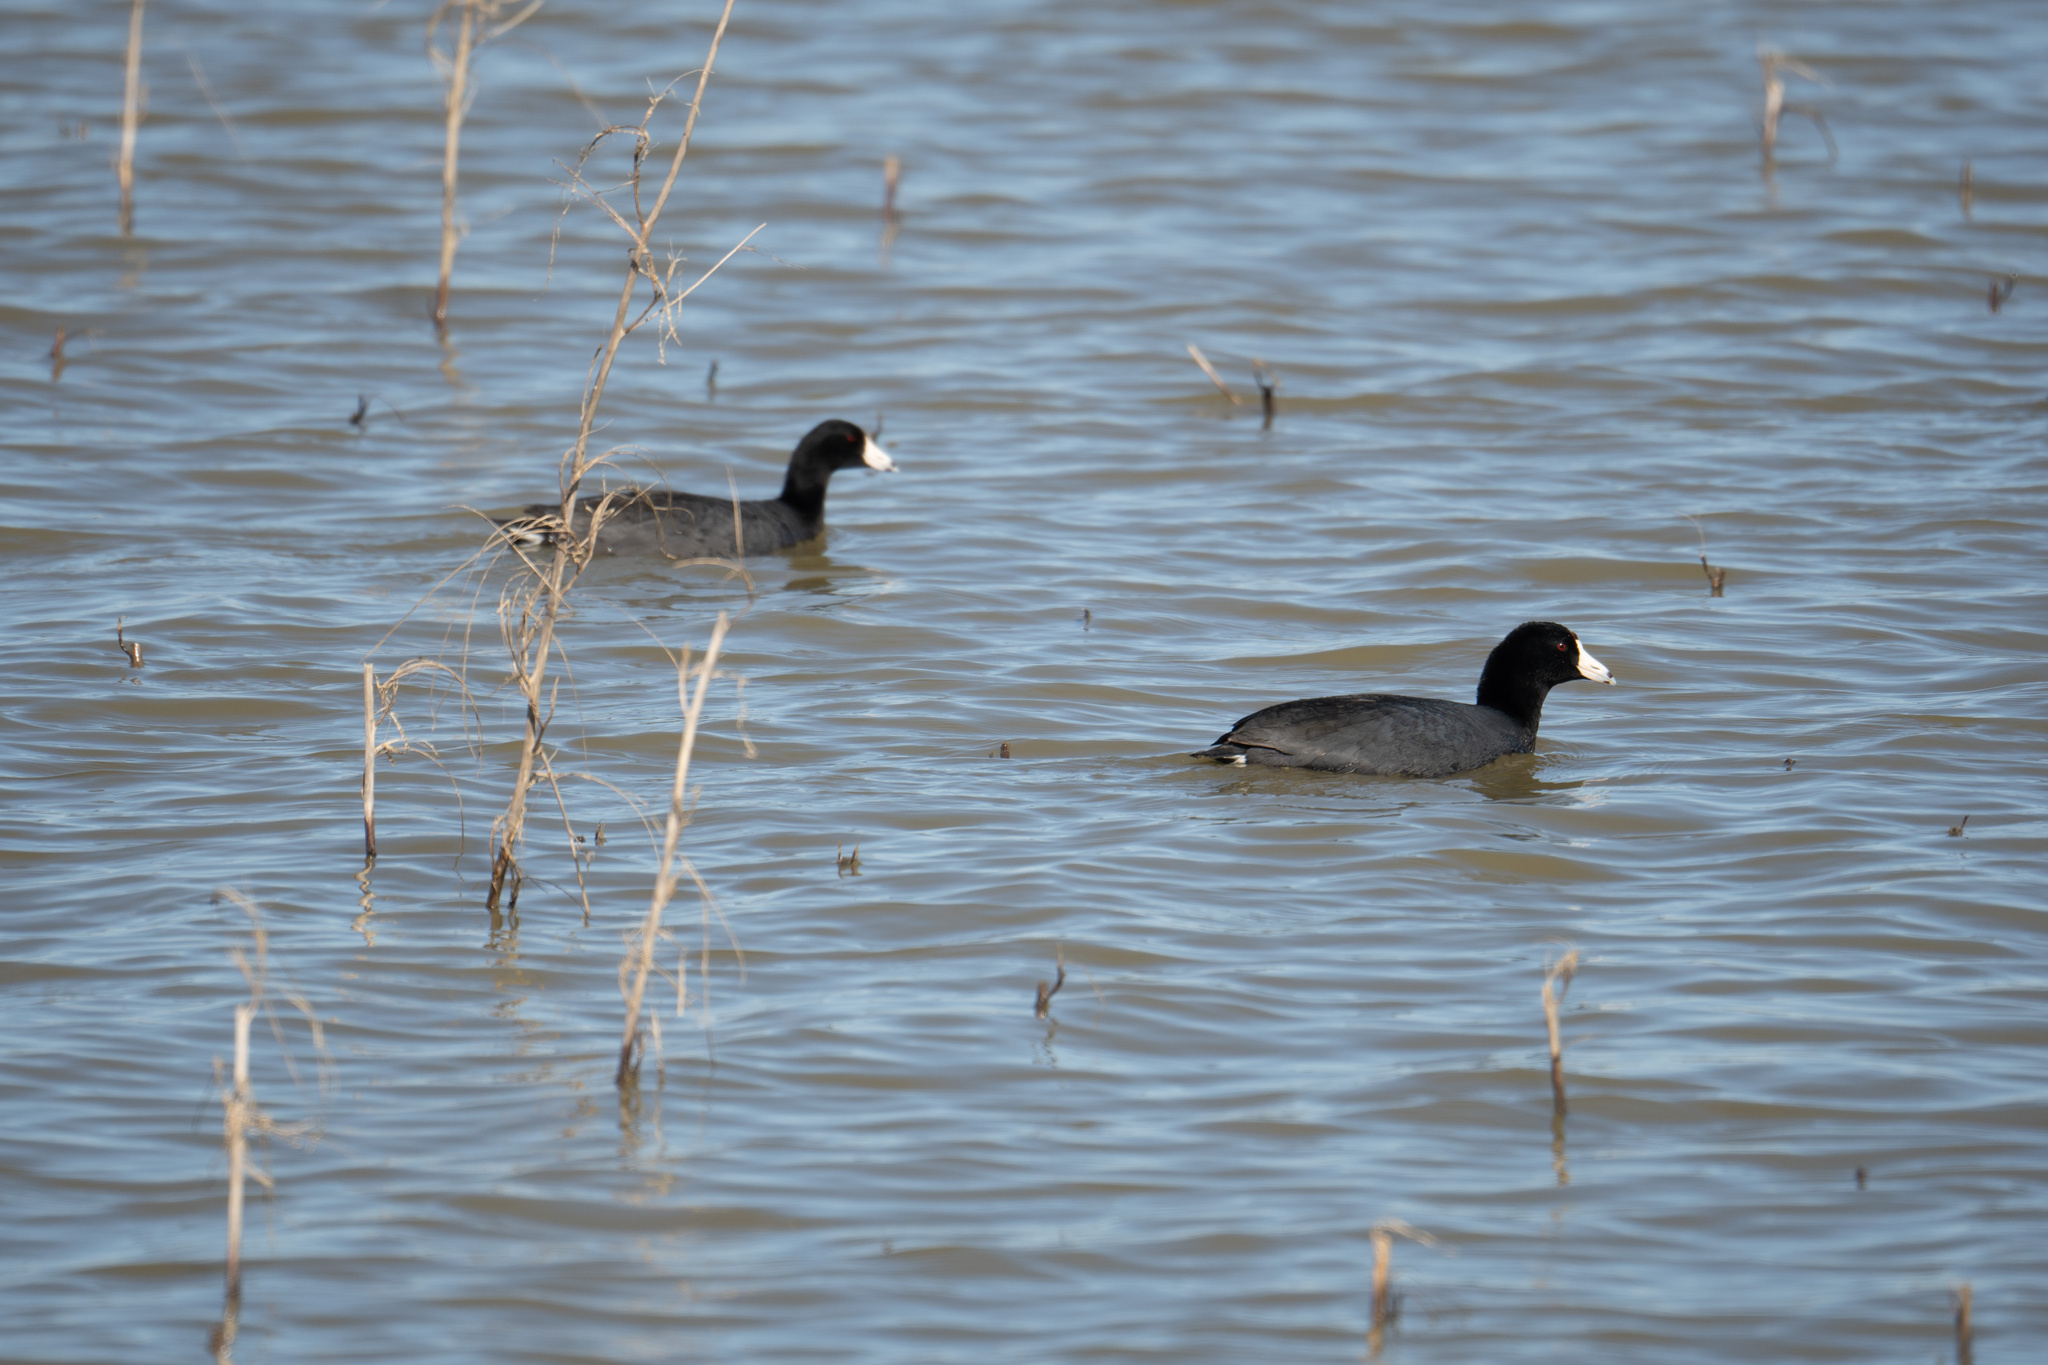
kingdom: Animalia
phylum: Chordata
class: Aves
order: Gruiformes
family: Rallidae
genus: Fulica
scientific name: Fulica americana
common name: American coot
